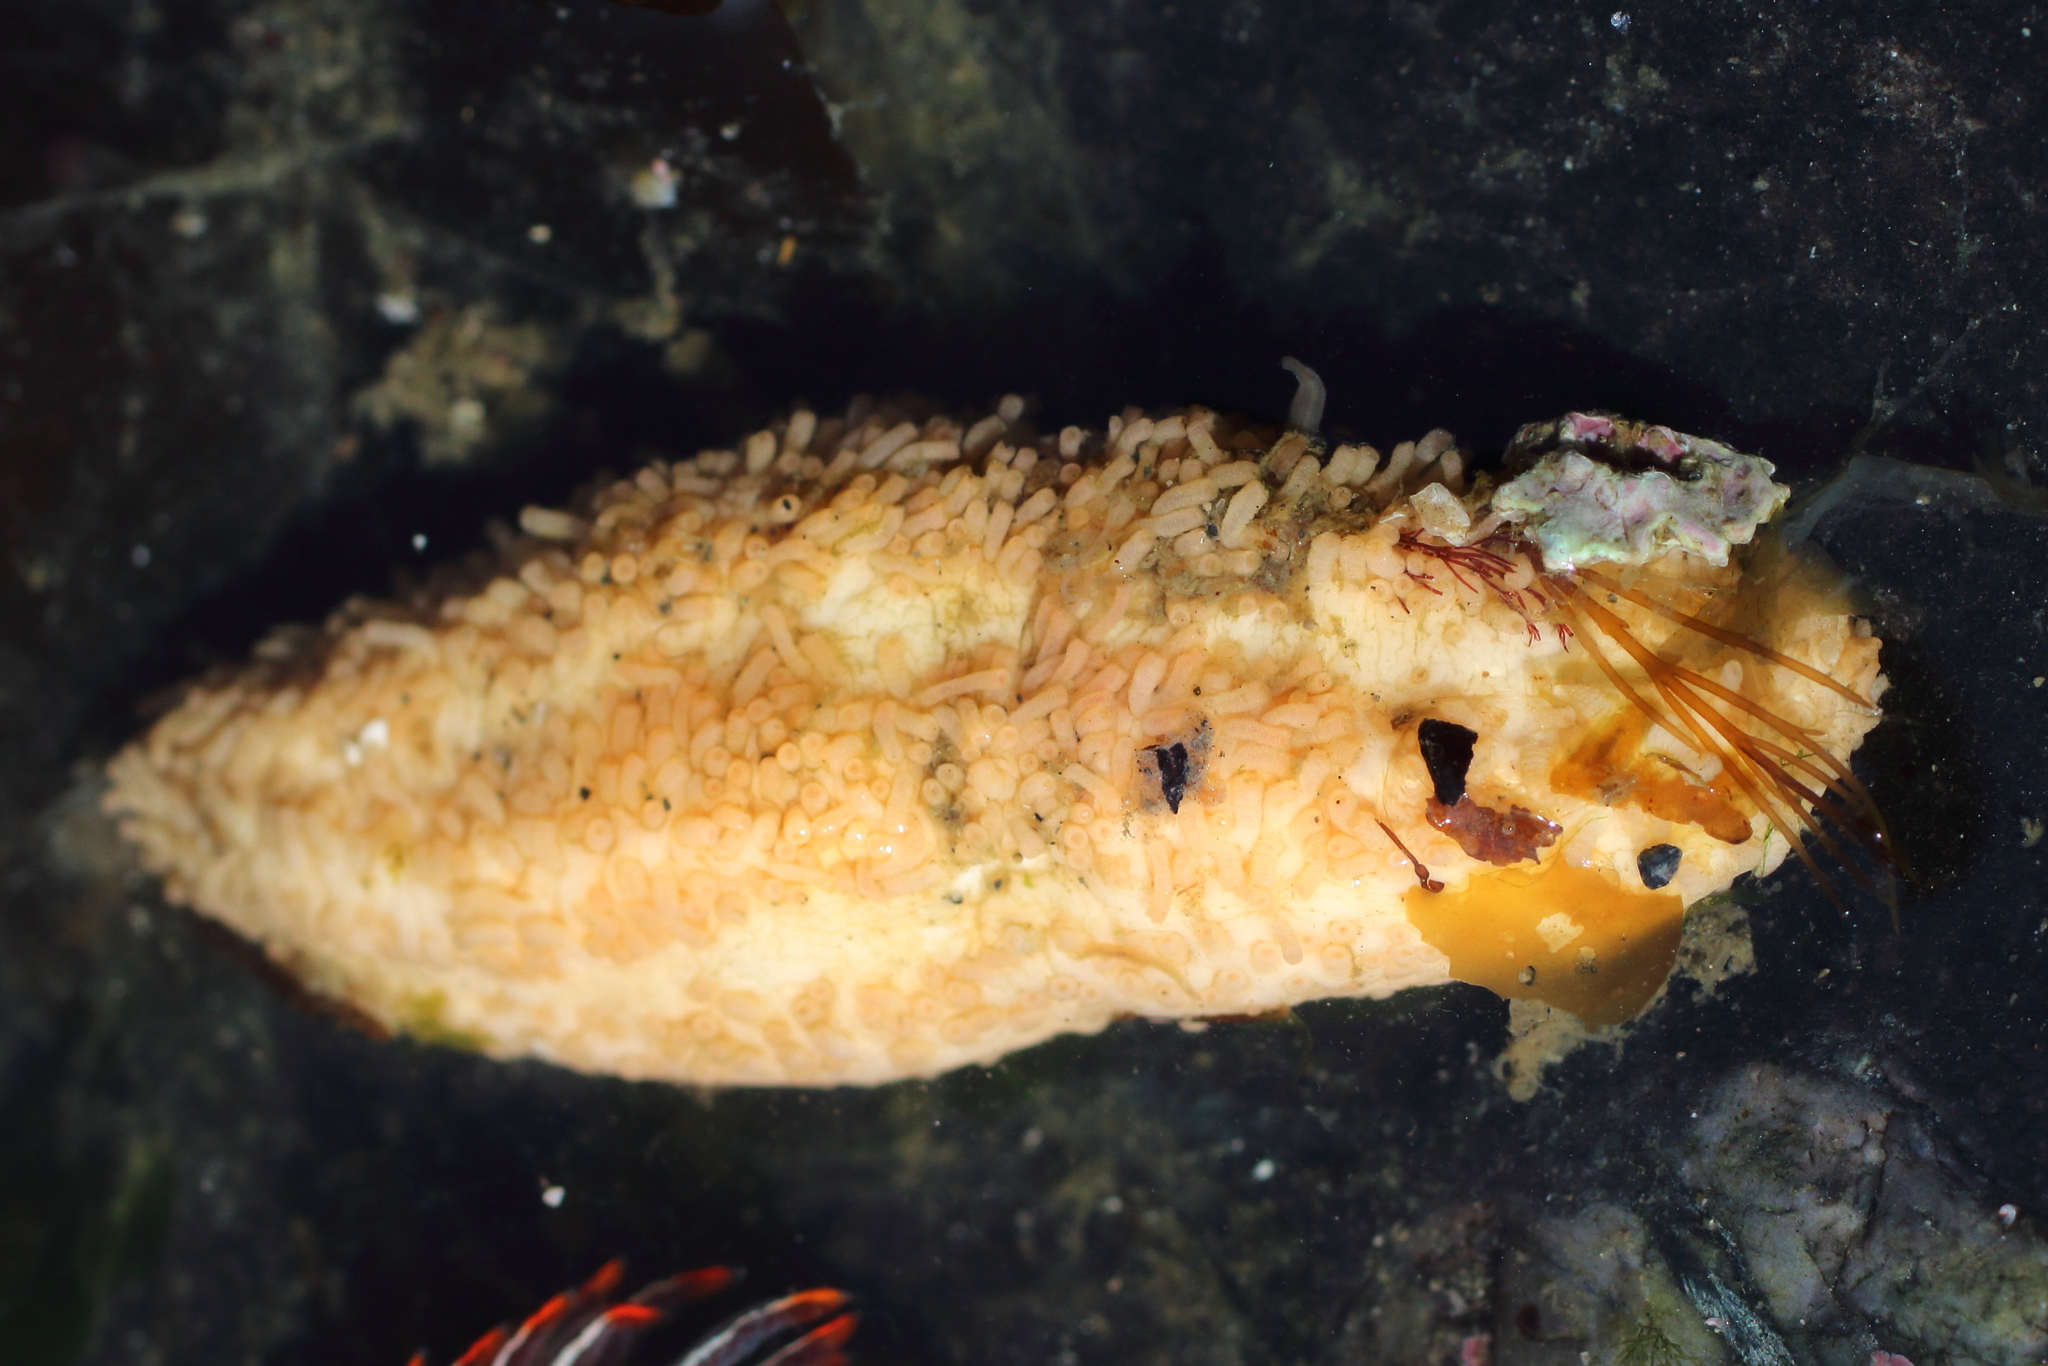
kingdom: Animalia
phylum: Echinodermata
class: Holothuroidea
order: Dendrochirotida
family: Sclerodactylidae
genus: Eupentacta
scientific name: Eupentacta pseudoquinquesemita
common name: Pseudo-white sea cucumber
